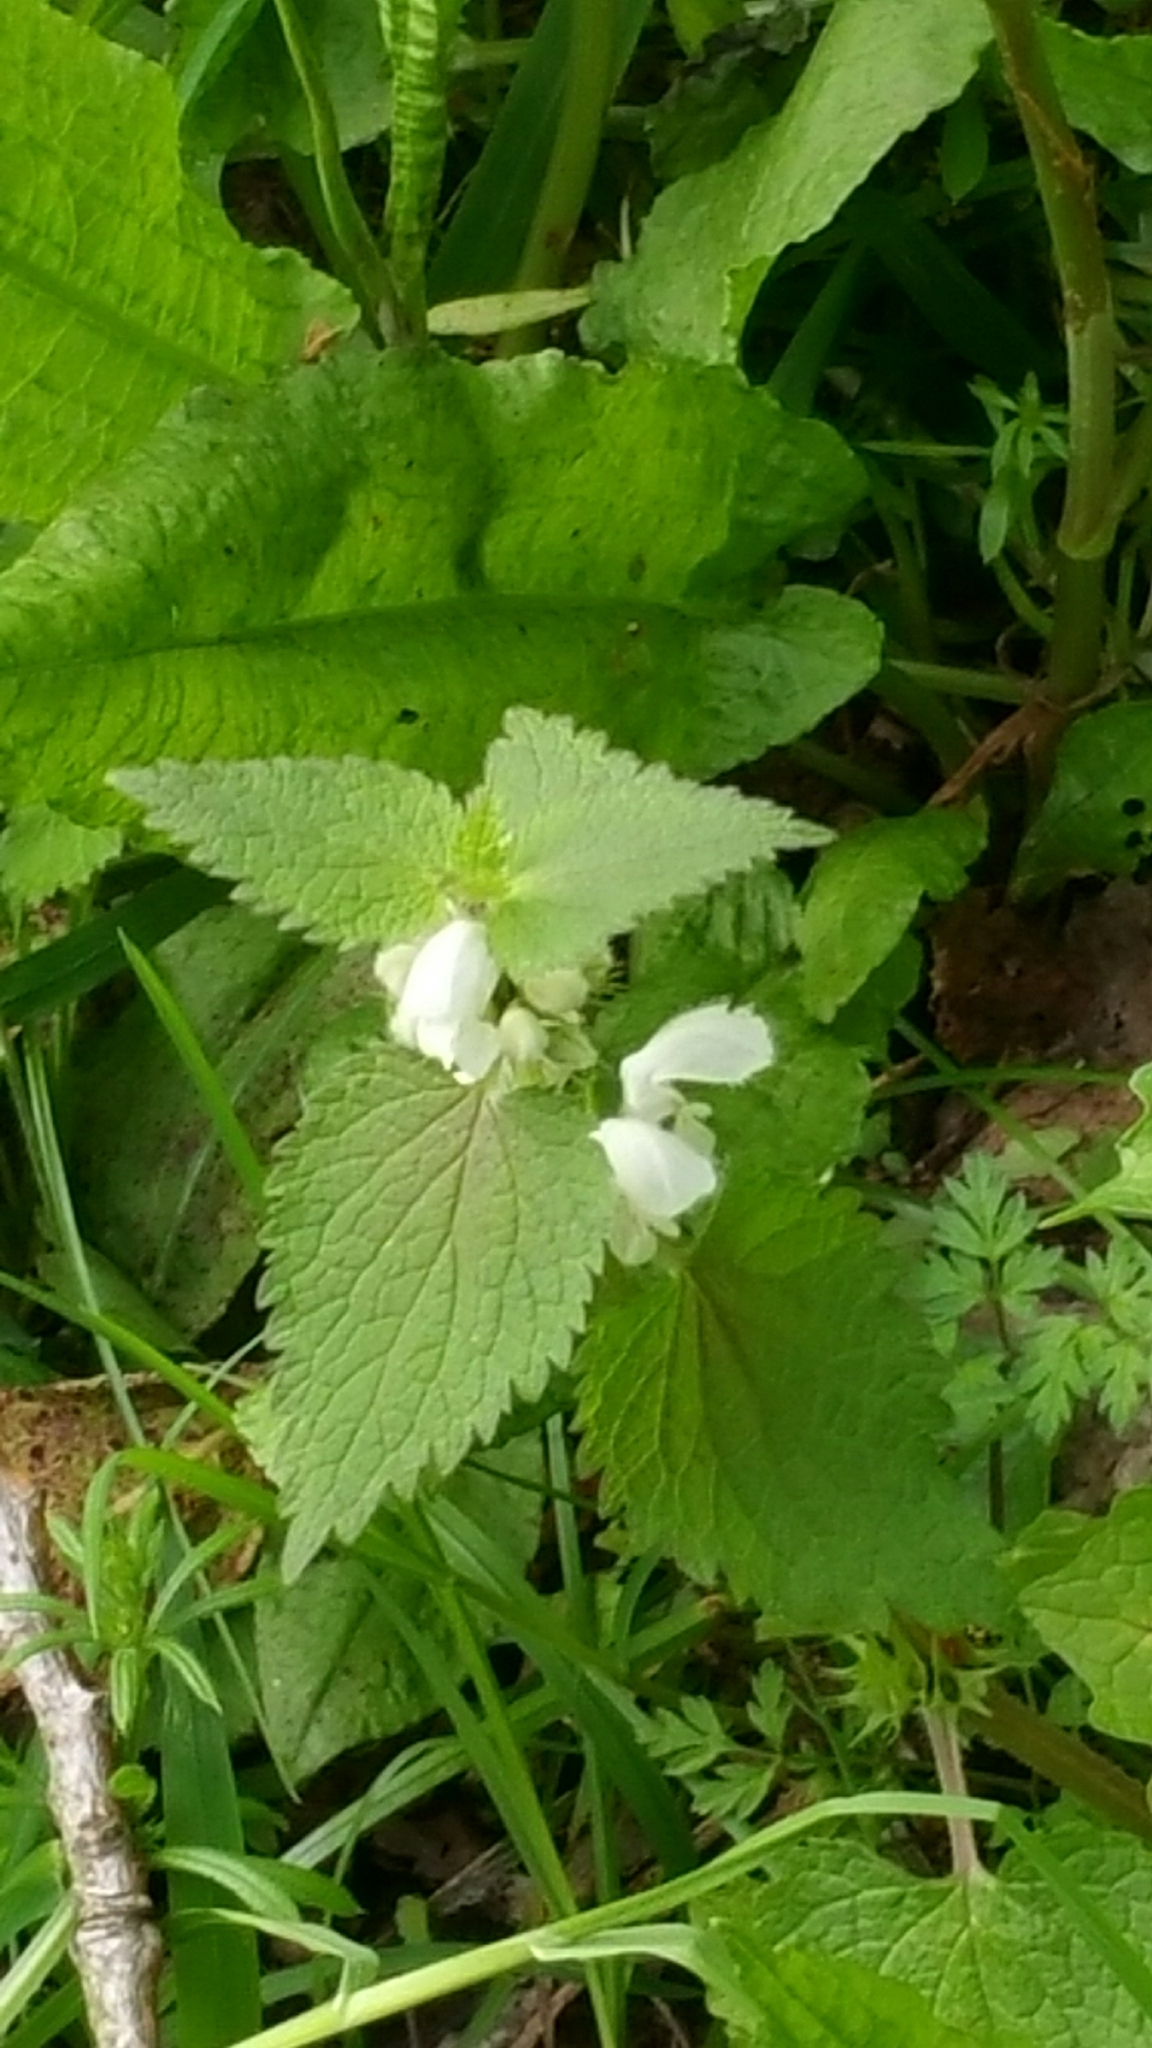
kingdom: Plantae
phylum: Tracheophyta
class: Magnoliopsida
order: Lamiales
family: Lamiaceae
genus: Lamium
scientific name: Lamium album
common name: White dead-nettle
